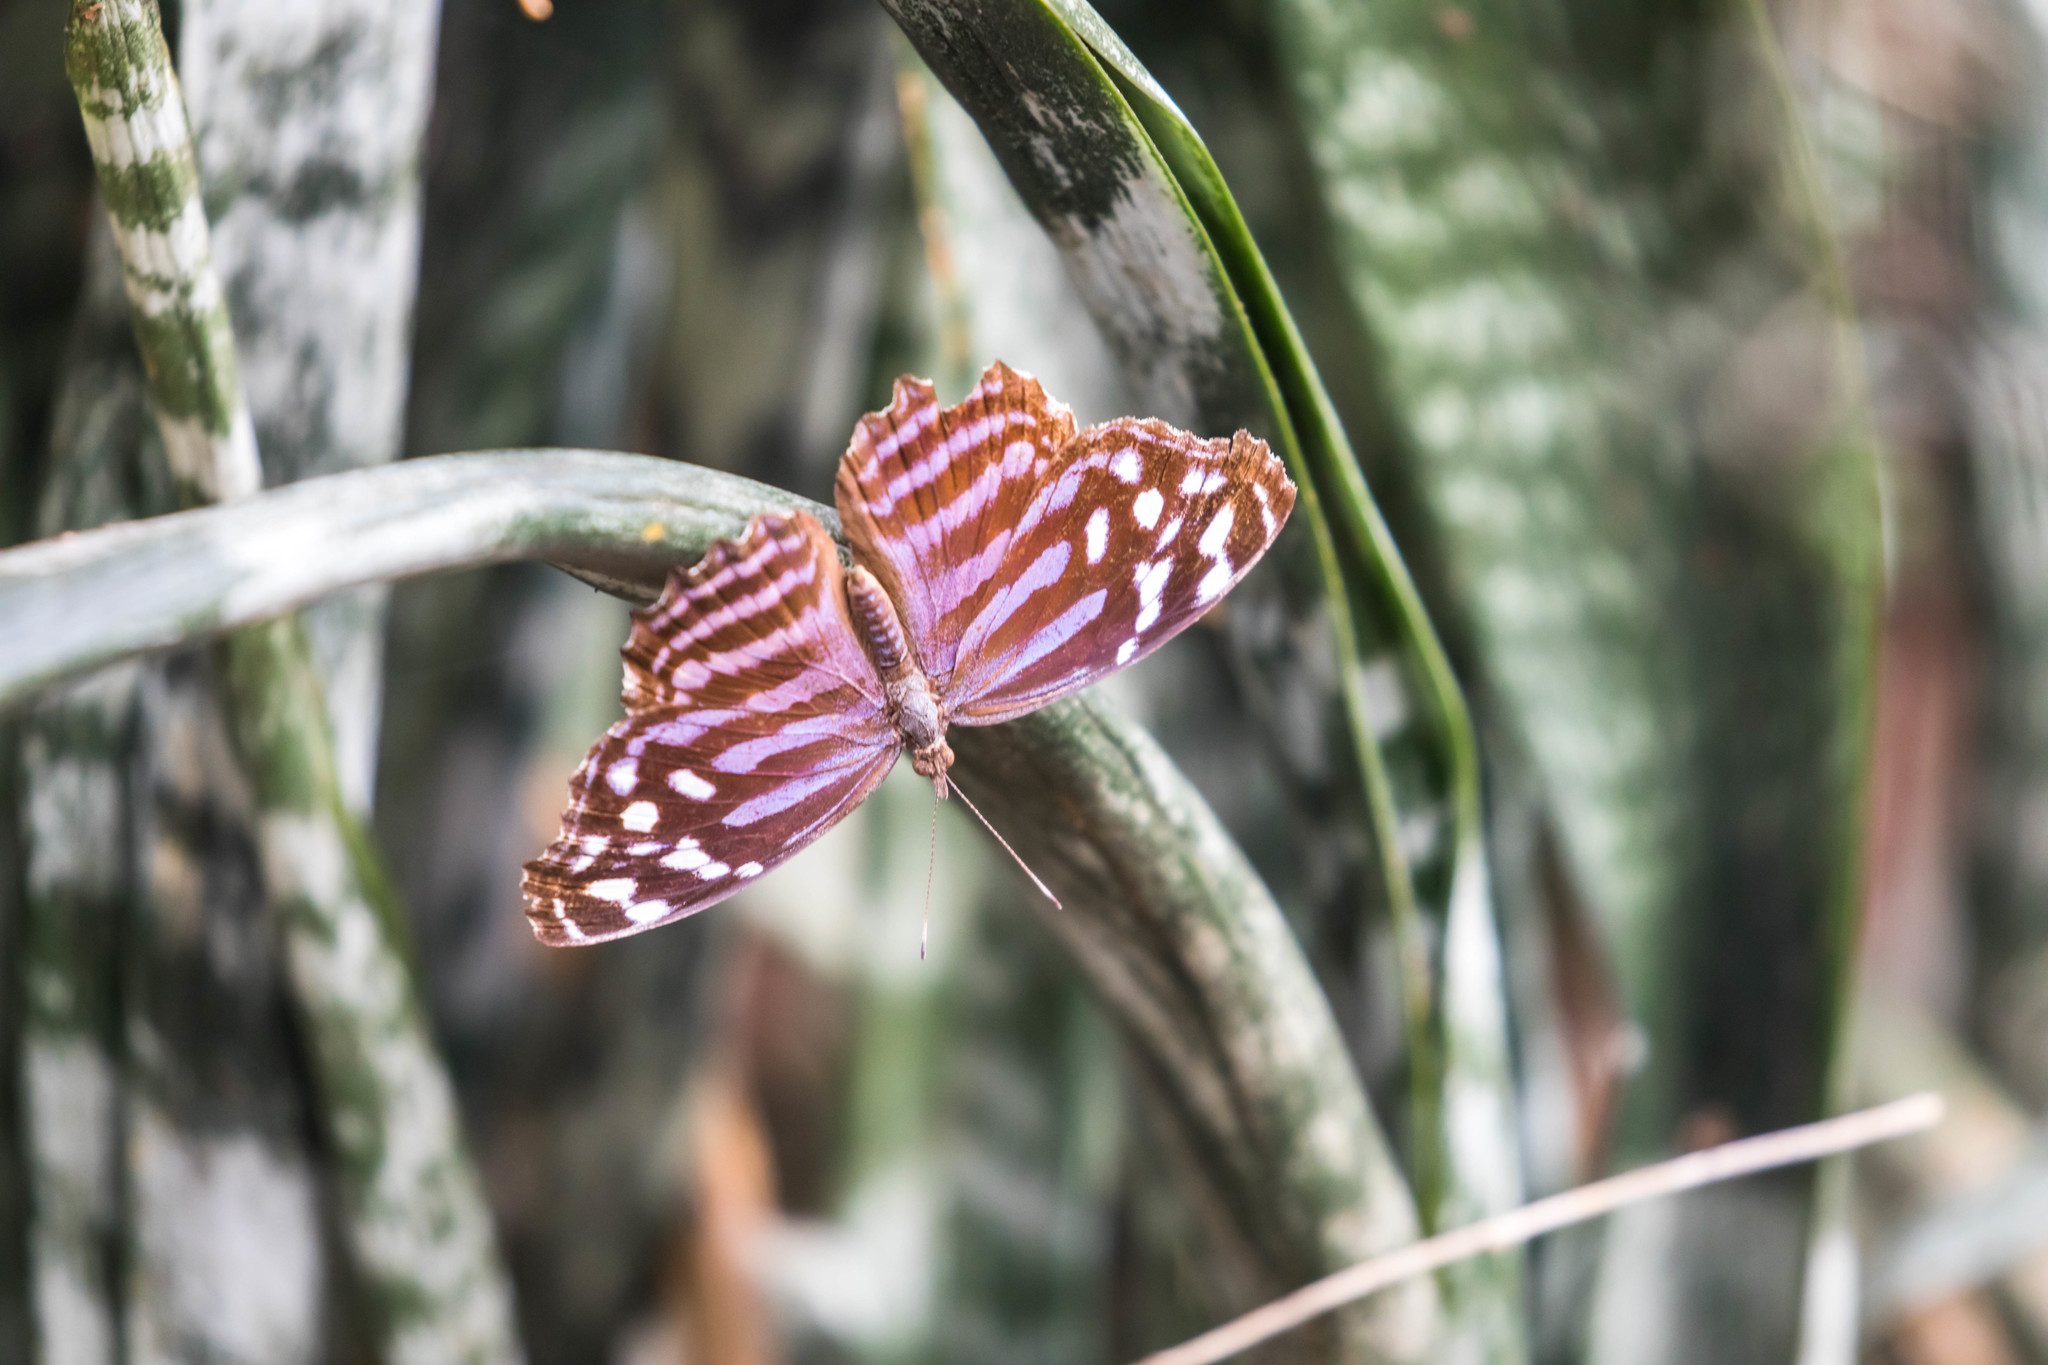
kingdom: Animalia
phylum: Arthropoda
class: Insecta
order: Lepidoptera
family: Nymphalidae
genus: Myscelia
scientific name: Myscelia ethusa
